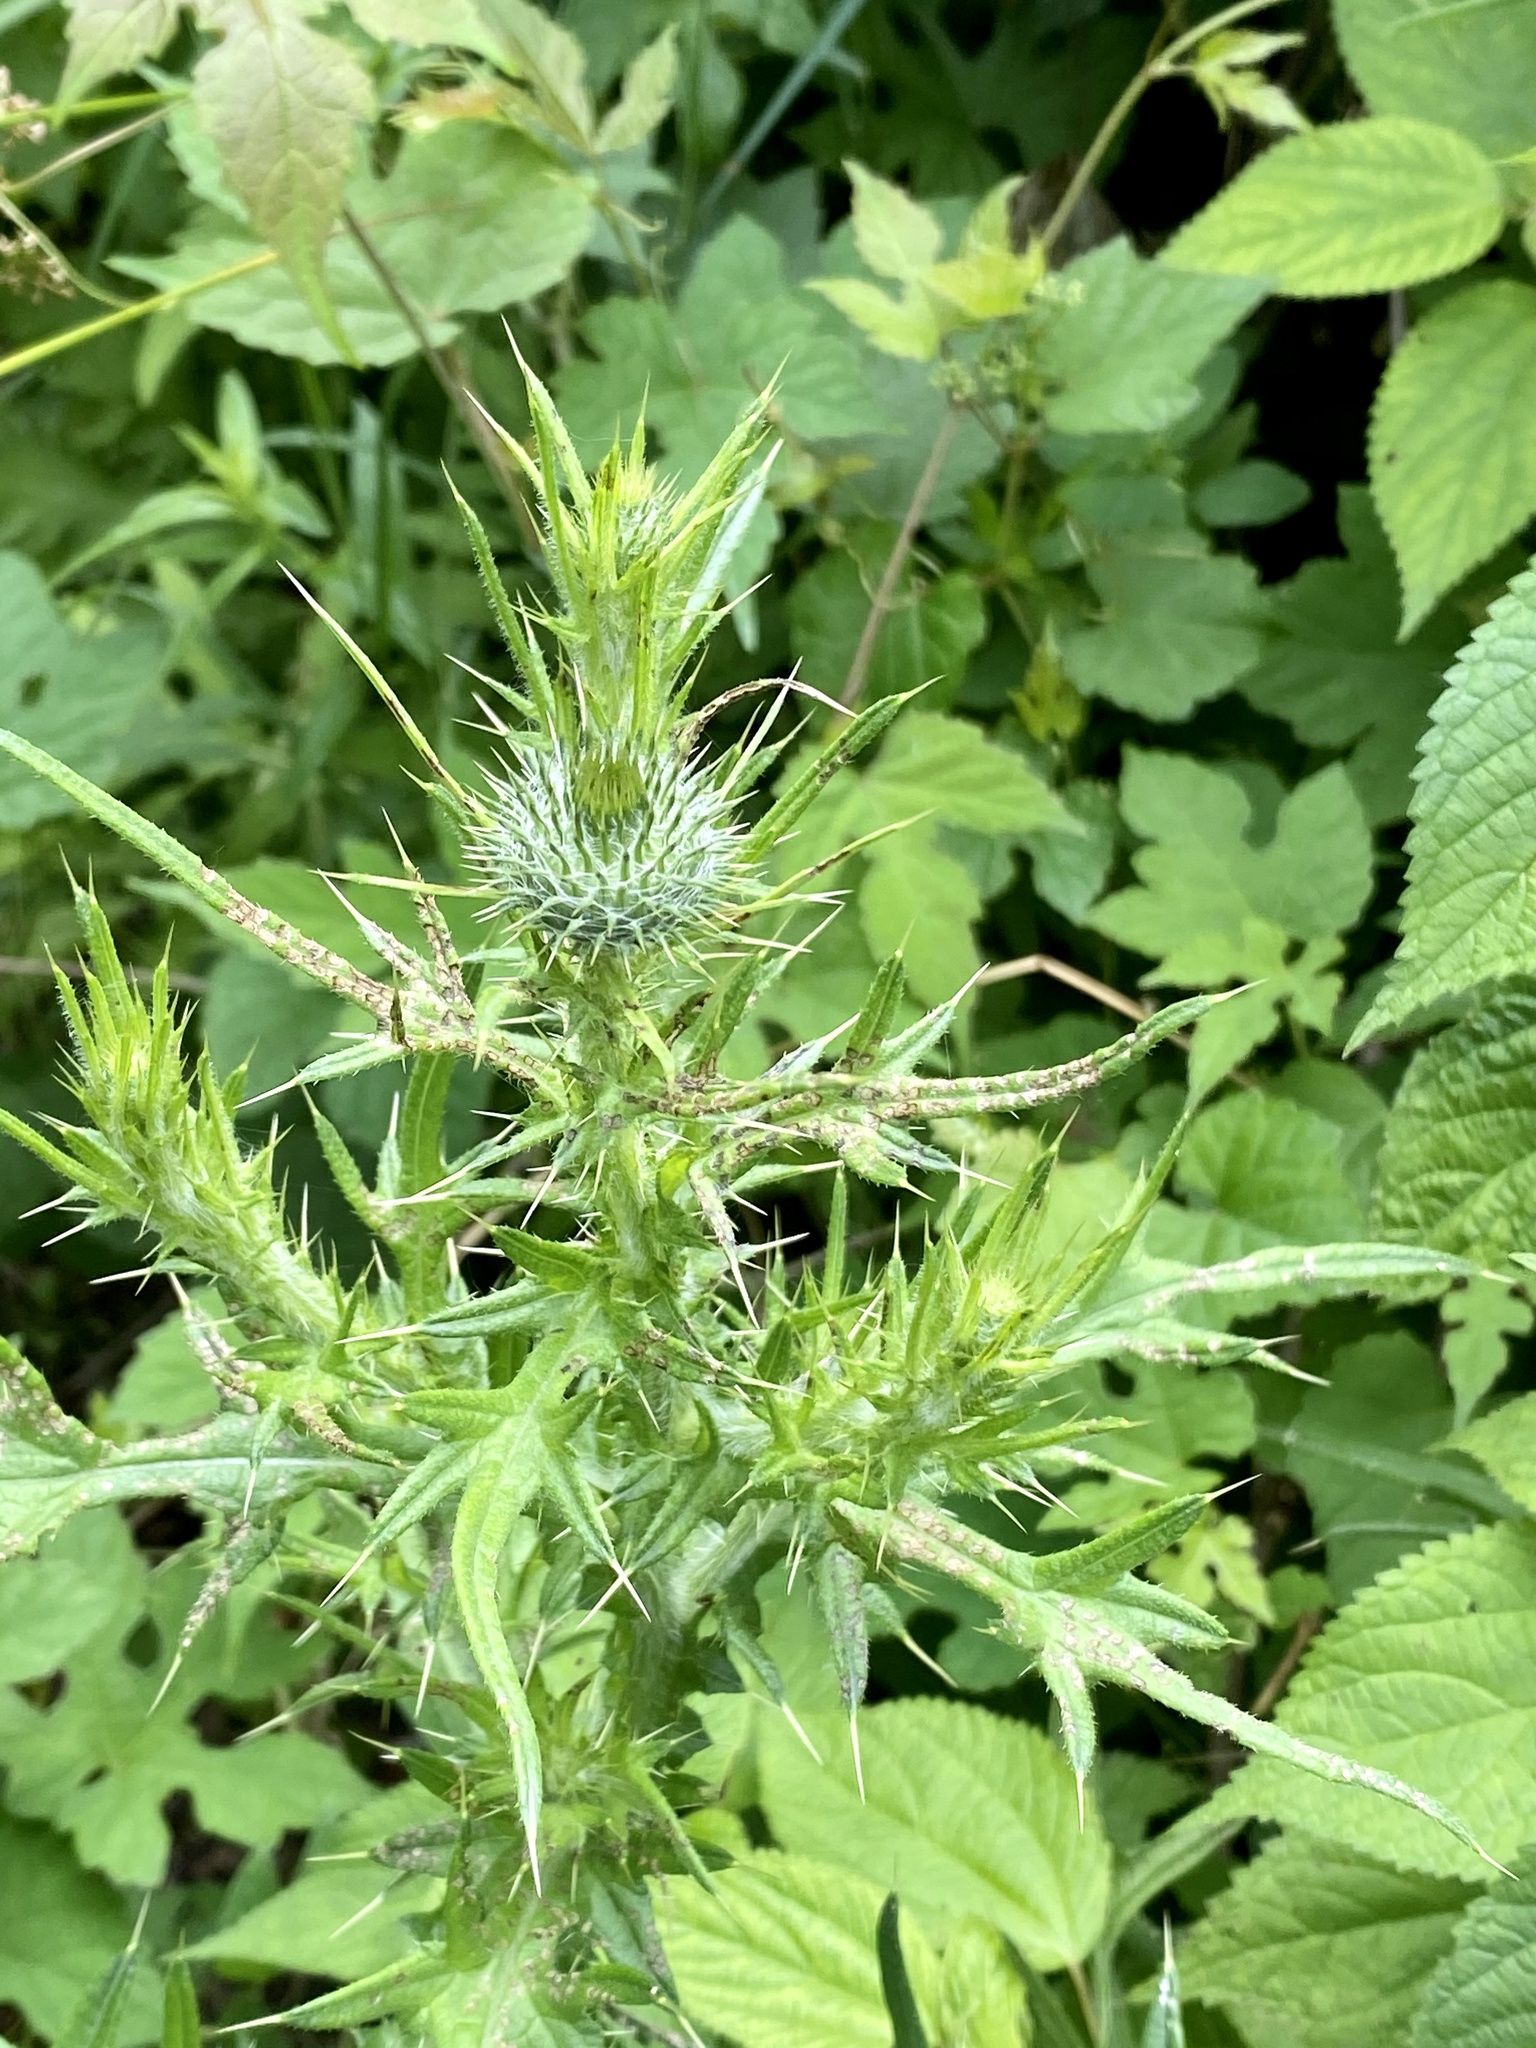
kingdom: Plantae
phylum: Tracheophyta
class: Magnoliopsida
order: Asterales
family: Asteraceae
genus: Cirsium
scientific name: Cirsium vulgare
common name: Bull thistle
